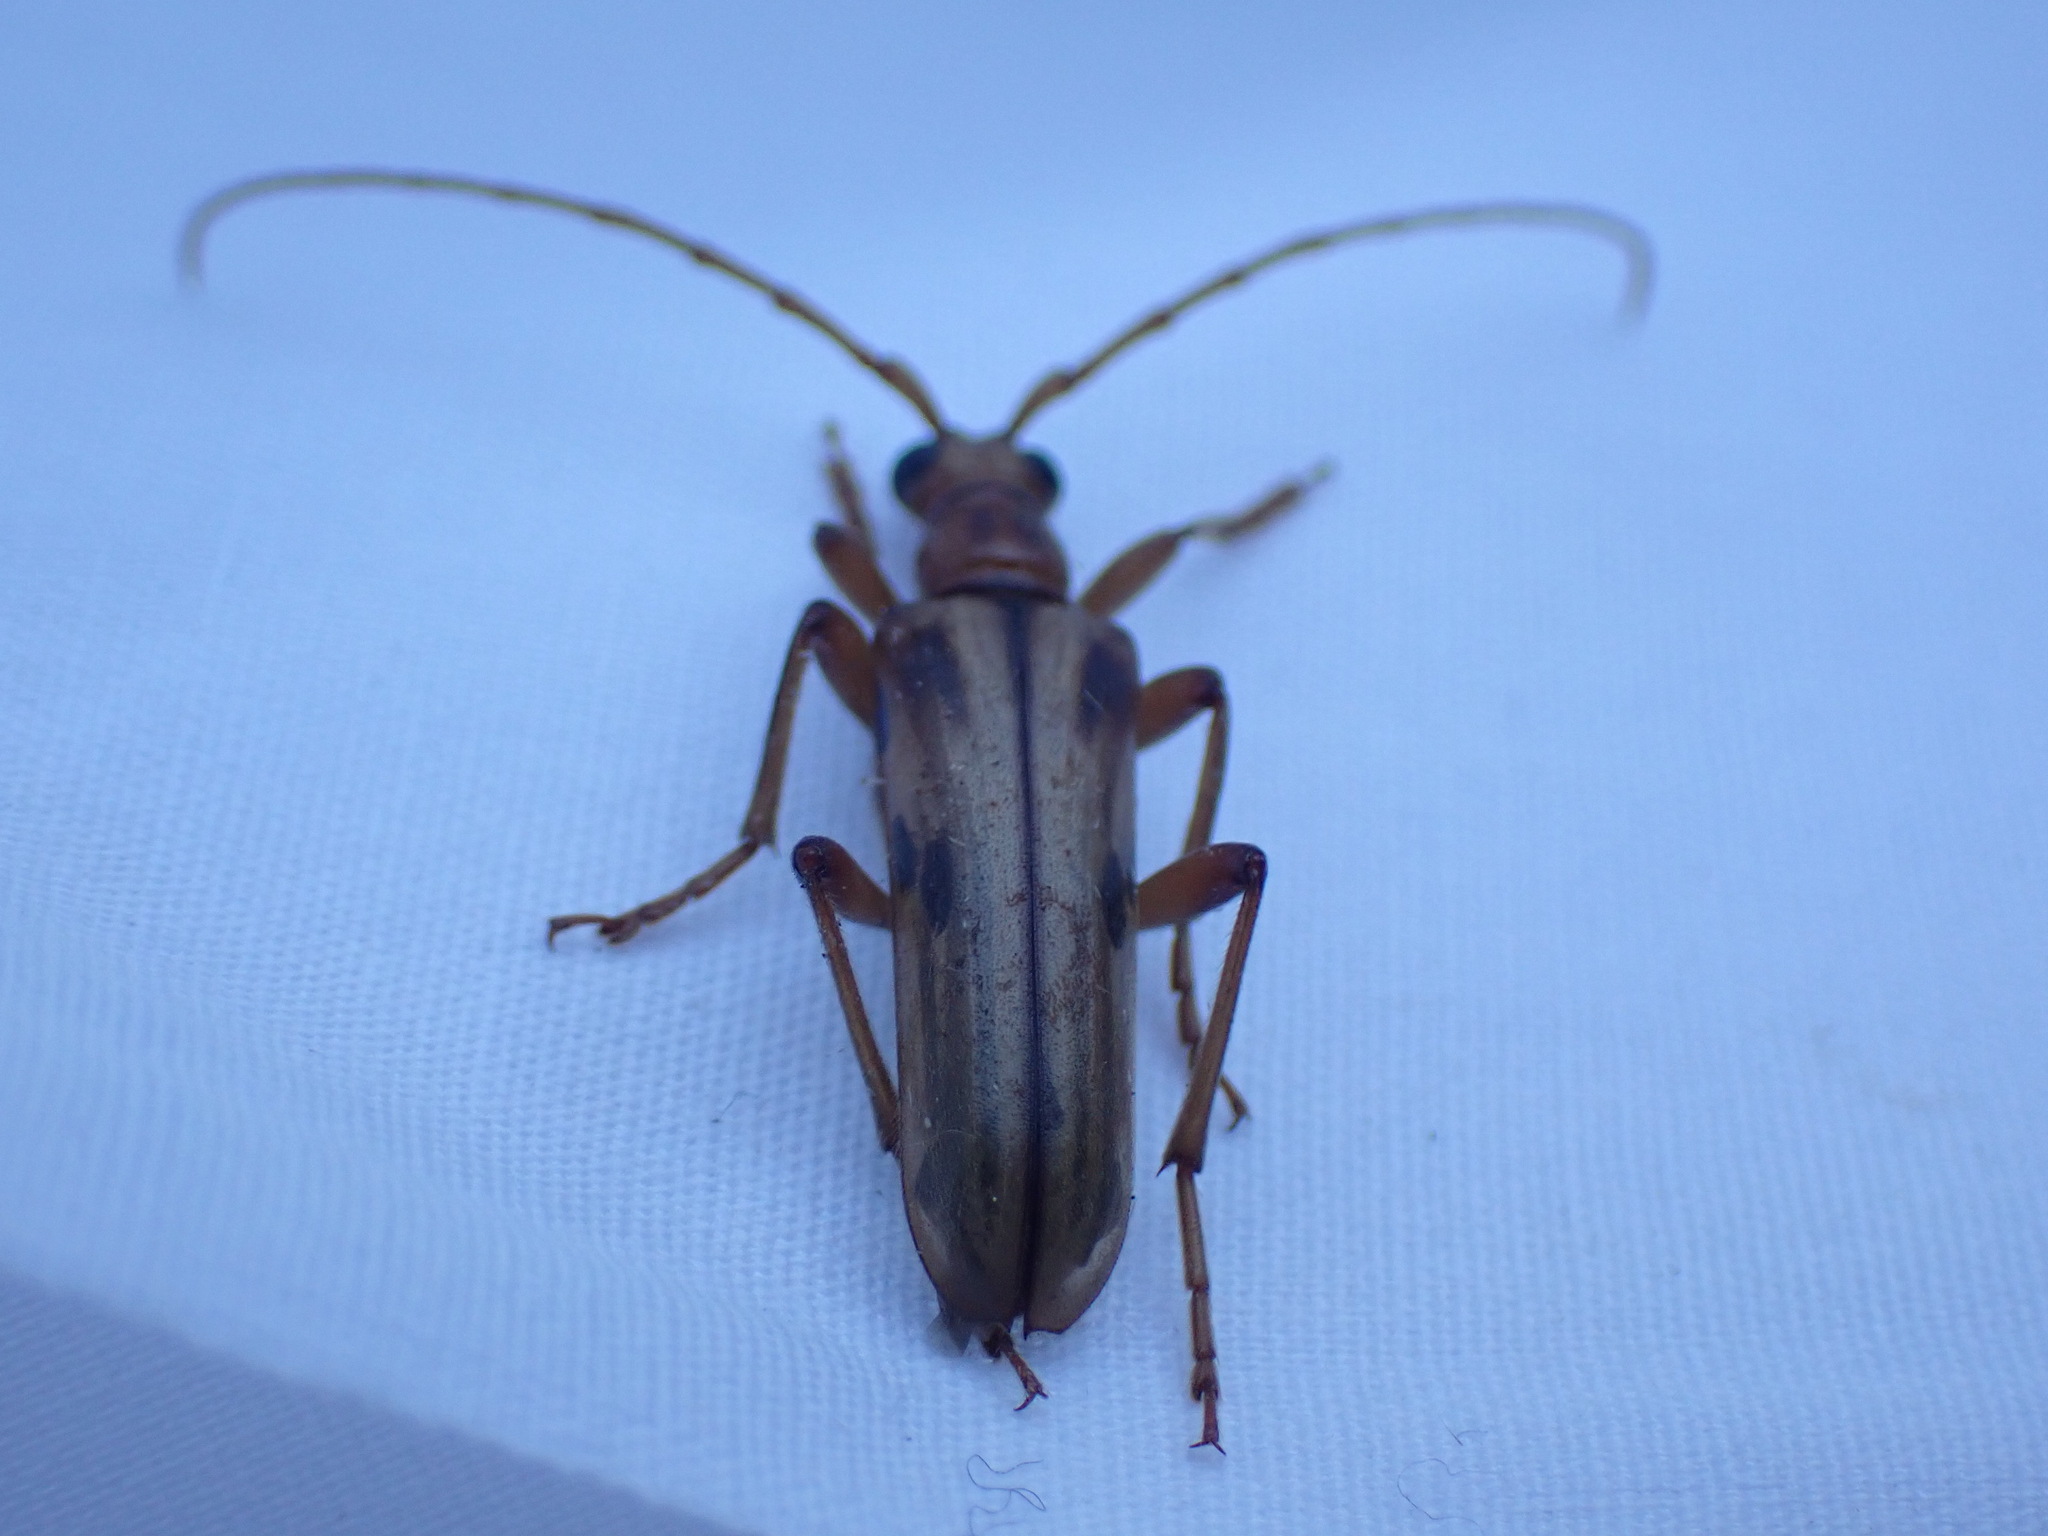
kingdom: Animalia
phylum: Arthropoda
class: Insecta
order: Coleoptera
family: Cerambycidae
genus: Ortholeptura
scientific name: Ortholeptura valida
